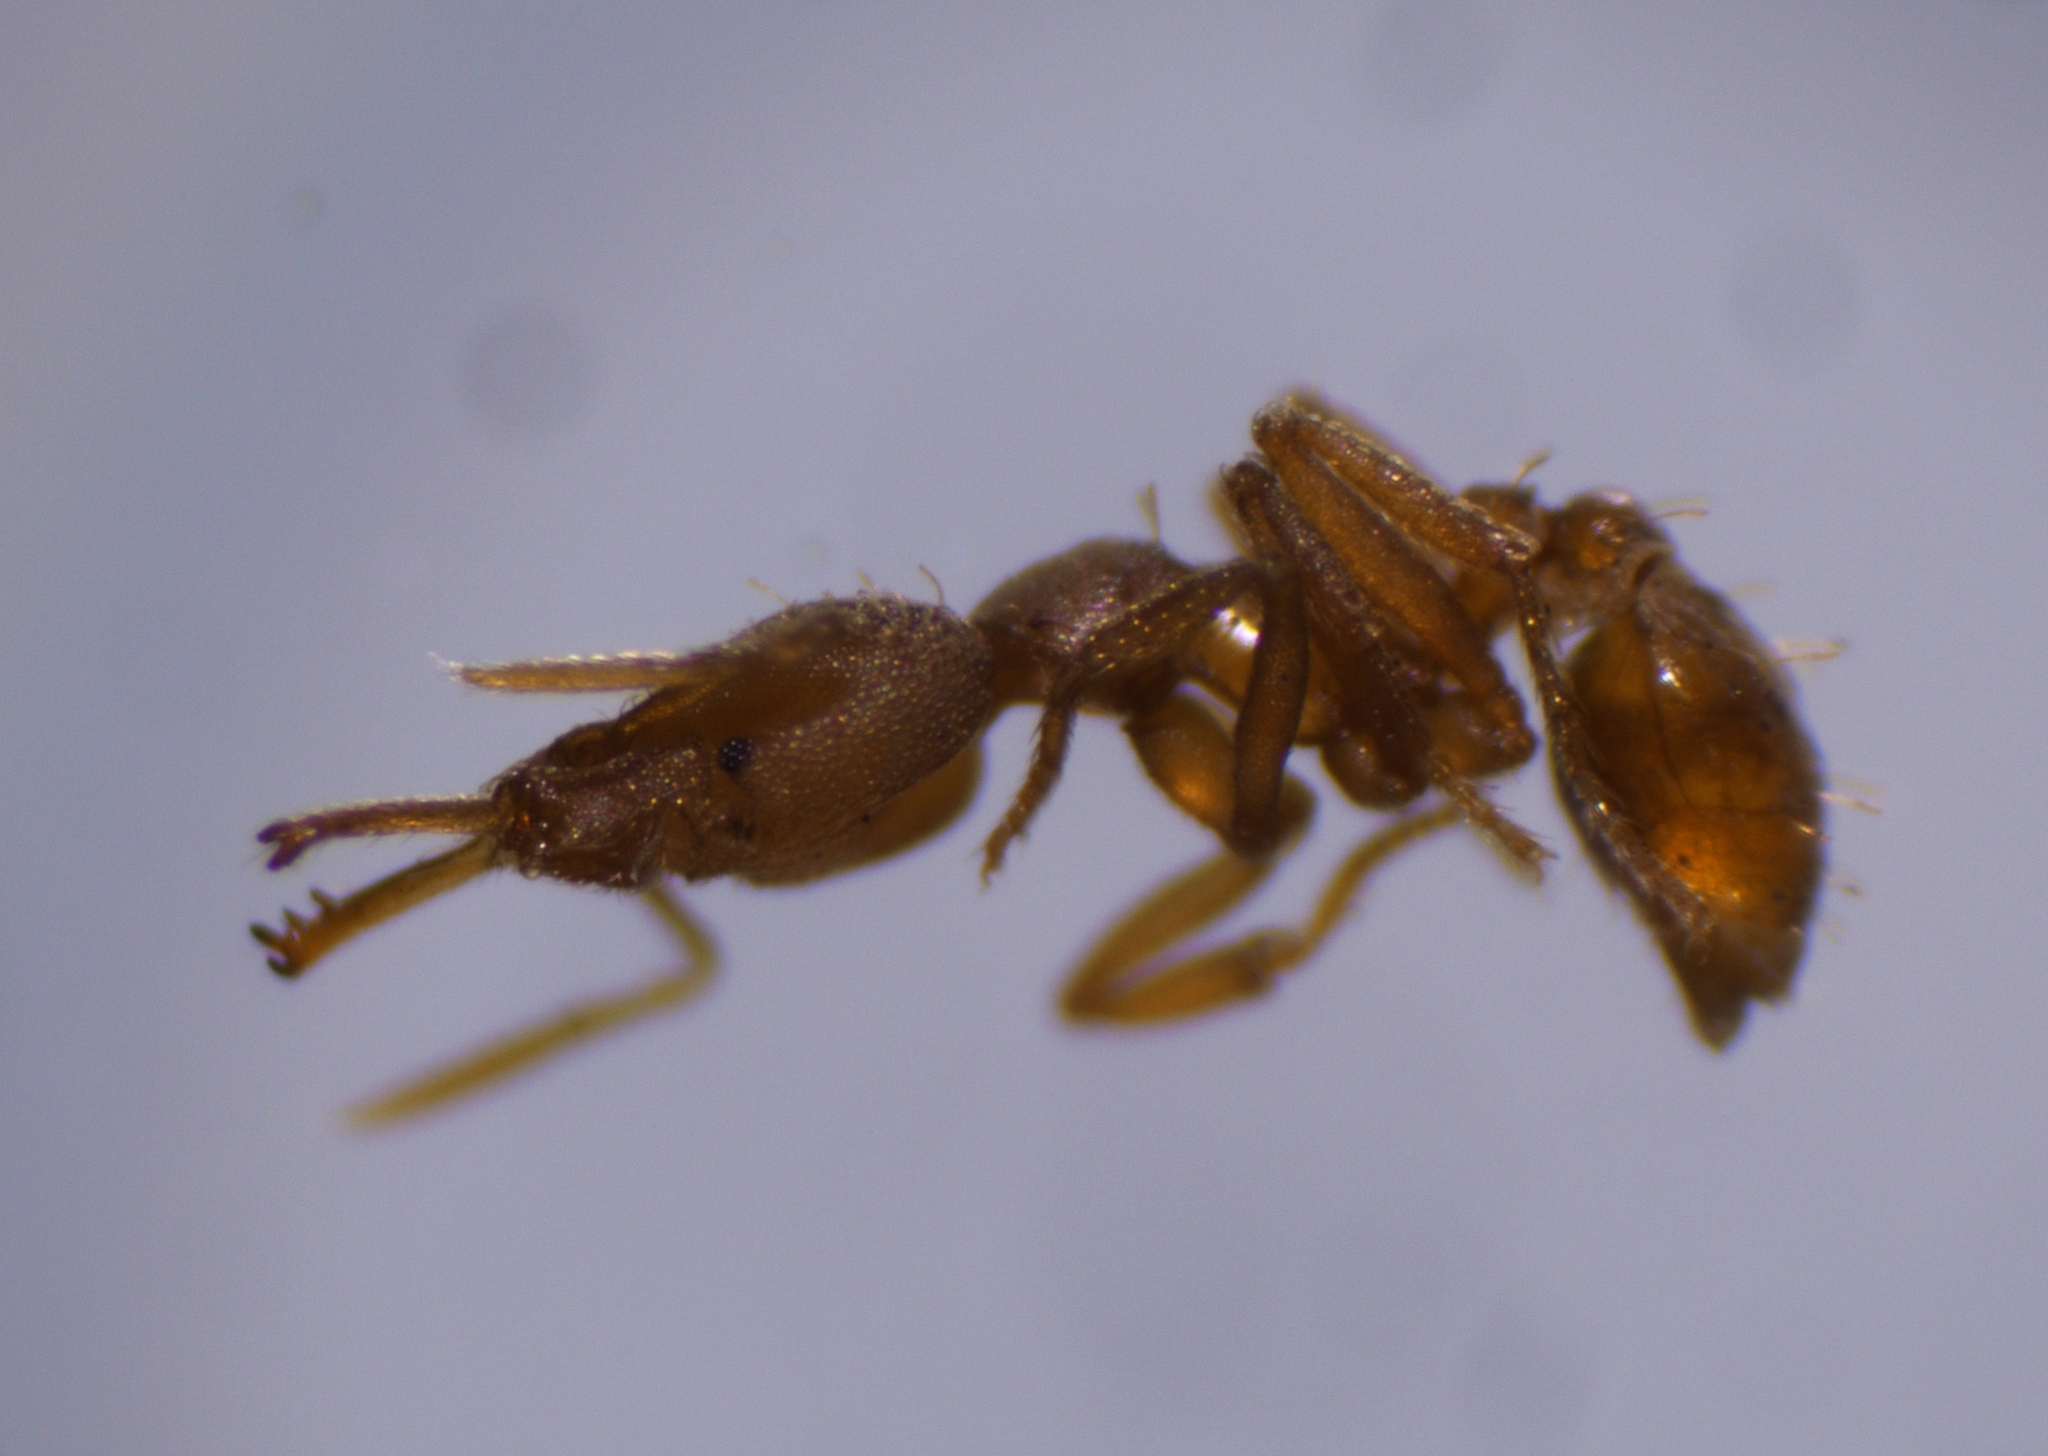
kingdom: Animalia
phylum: Arthropoda
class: Insecta
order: Hymenoptera
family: Formicidae
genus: Strumigenys
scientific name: Strumigenys rogeri
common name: Ant
